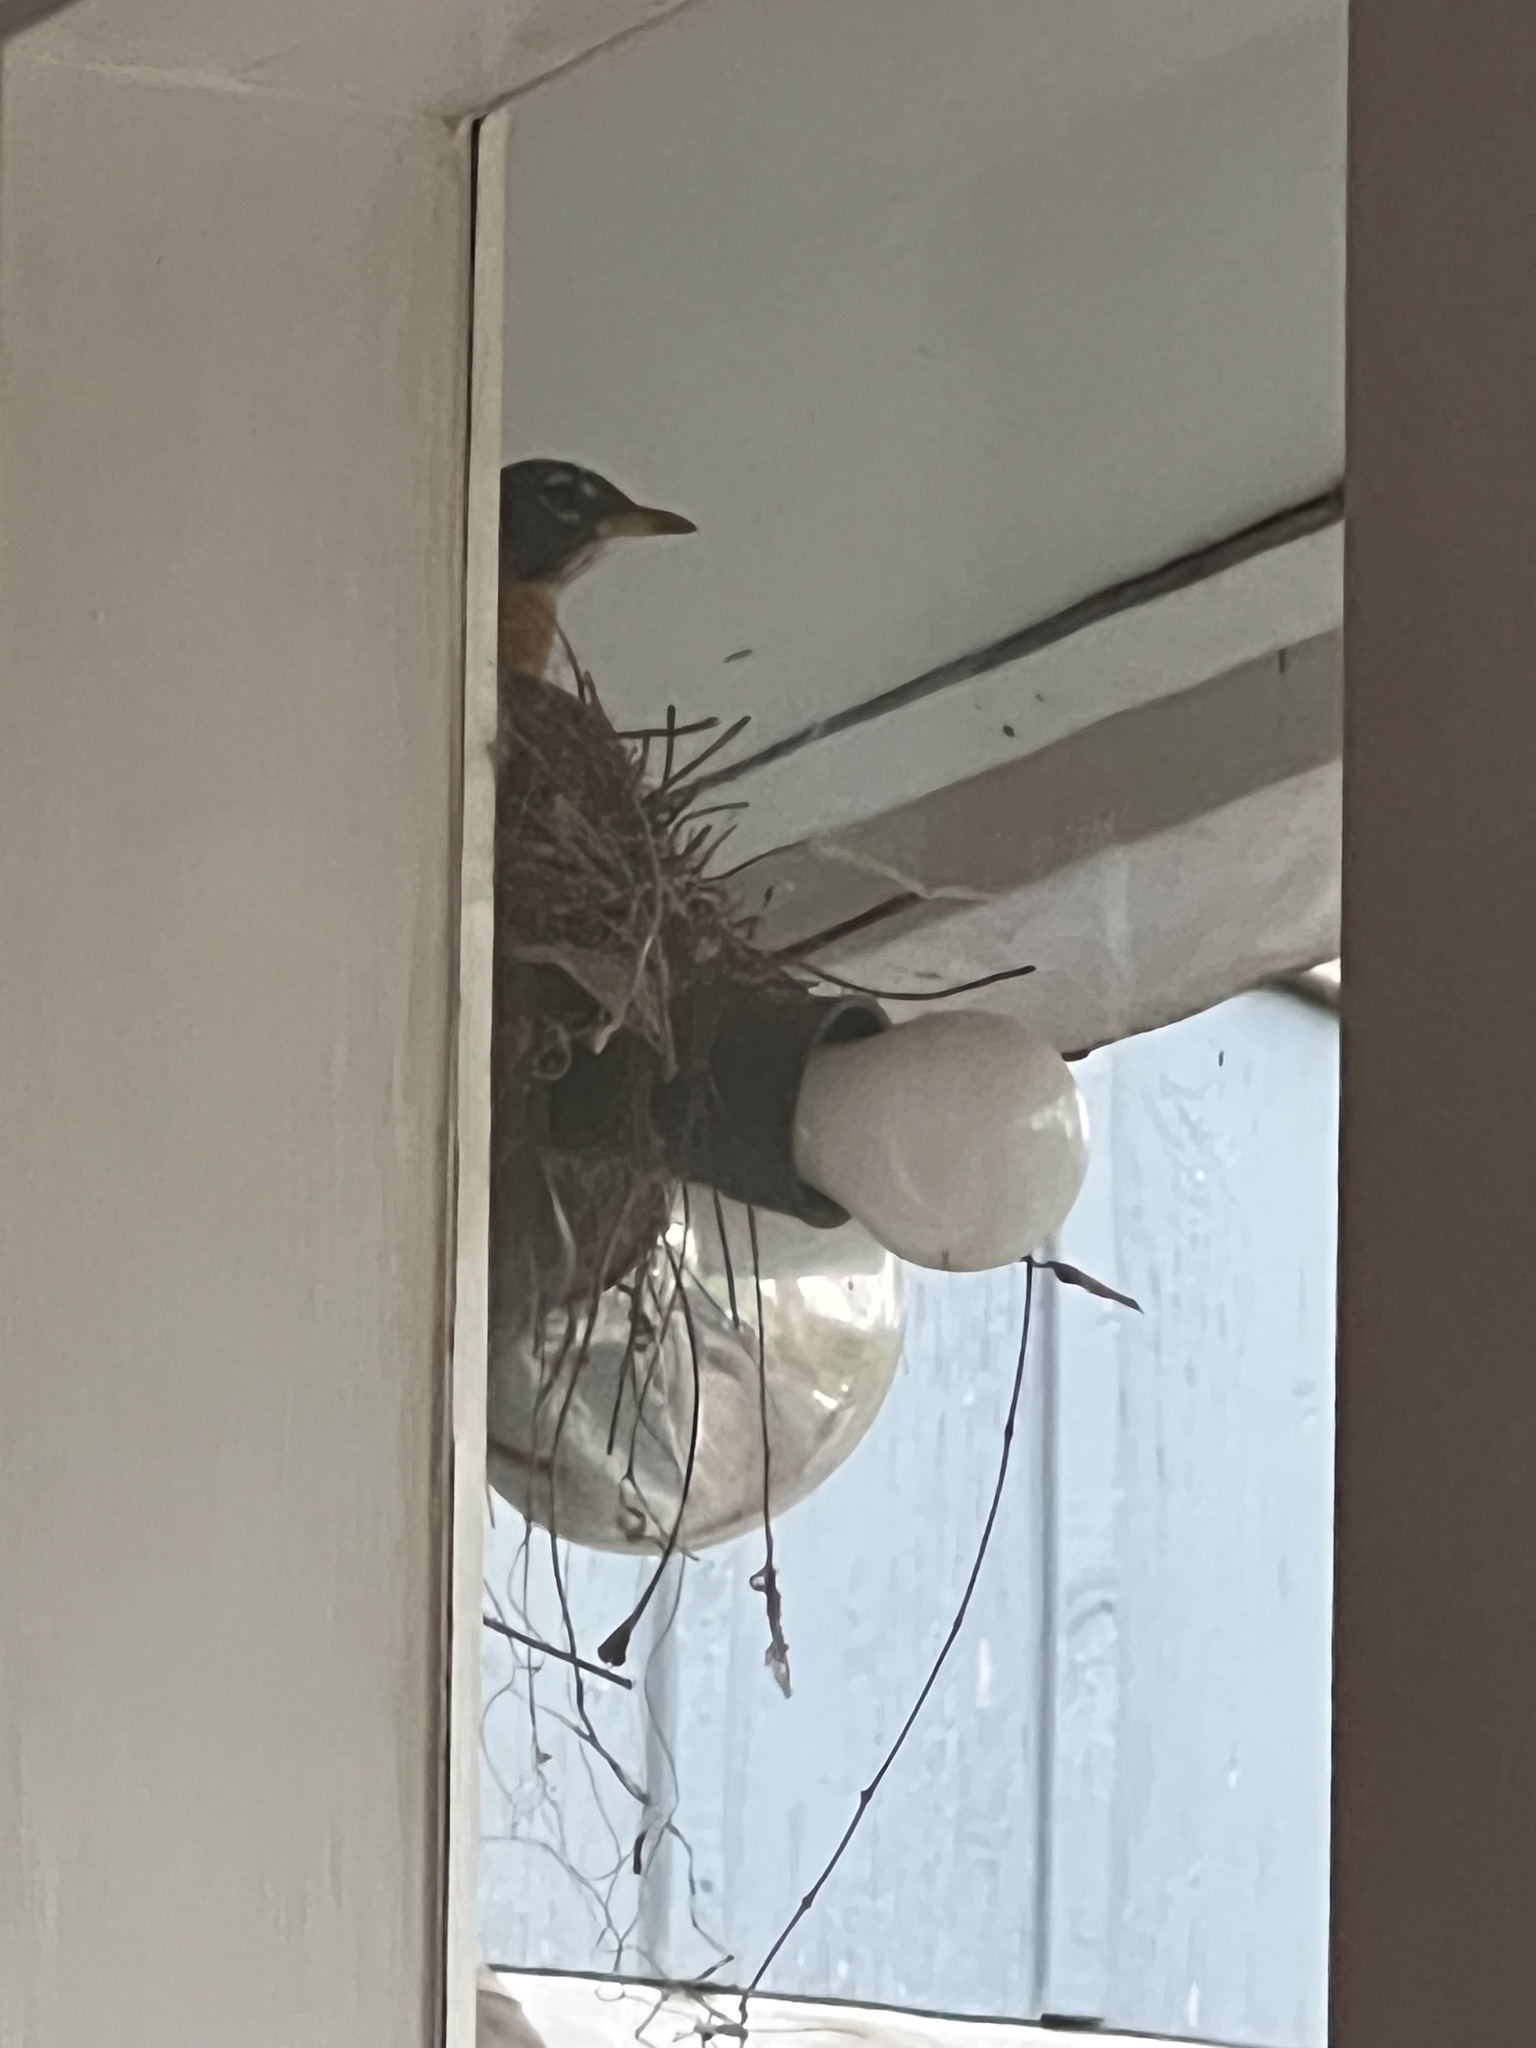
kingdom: Animalia
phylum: Chordata
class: Aves
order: Passeriformes
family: Turdidae
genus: Turdus
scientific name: Turdus migratorius
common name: American robin
